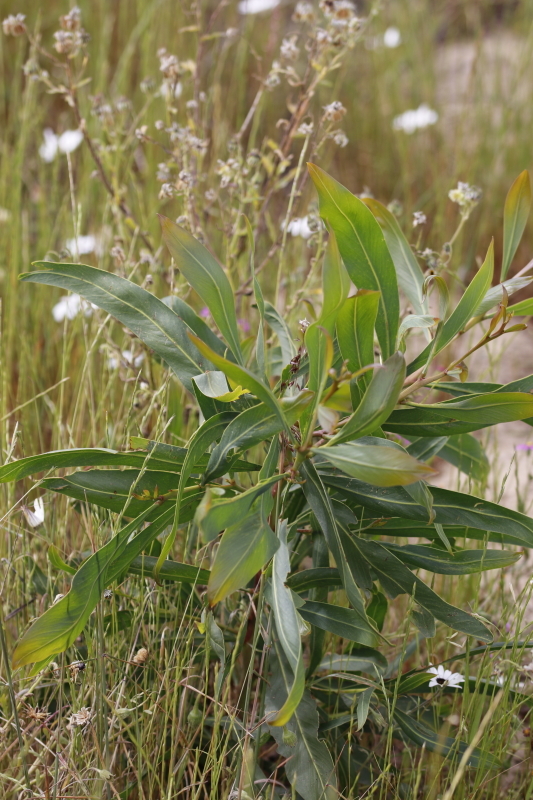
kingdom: Plantae
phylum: Tracheophyta
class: Magnoliopsida
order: Fabales
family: Fabaceae
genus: Acacia
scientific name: Acacia saligna
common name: Orange wattle
